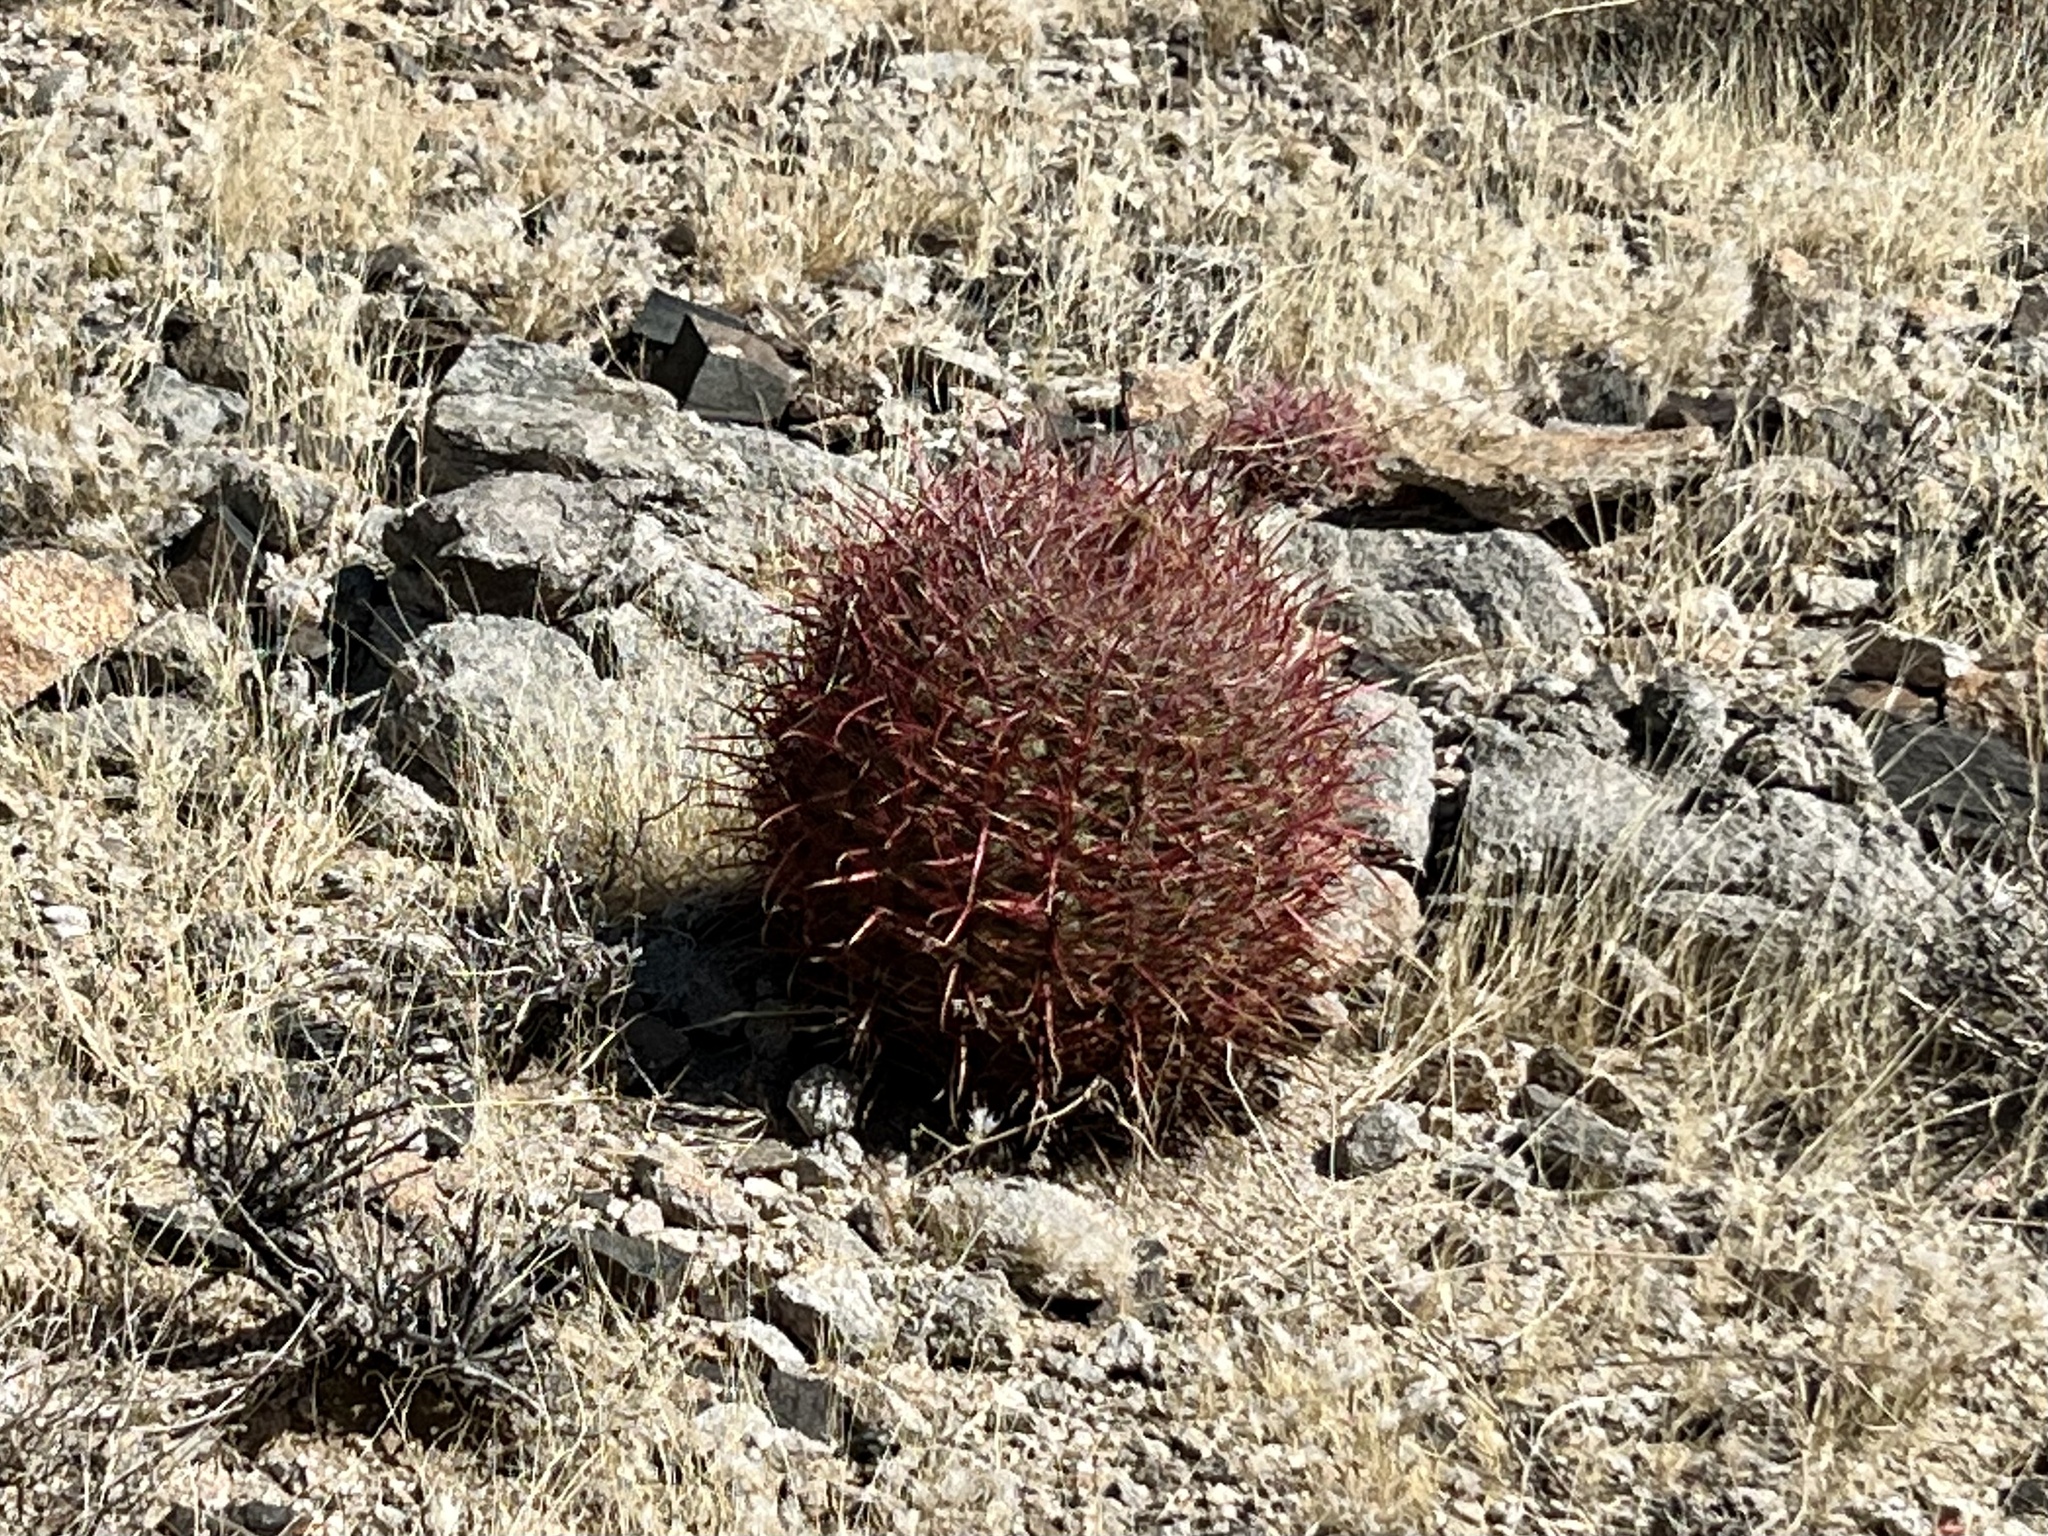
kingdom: Plantae
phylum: Tracheophyta
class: Magnoliopsida
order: Caryophyllales
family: Cactaceae
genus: Ferocactus
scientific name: Ferocactus cylindraceus
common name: California barrel cactus
